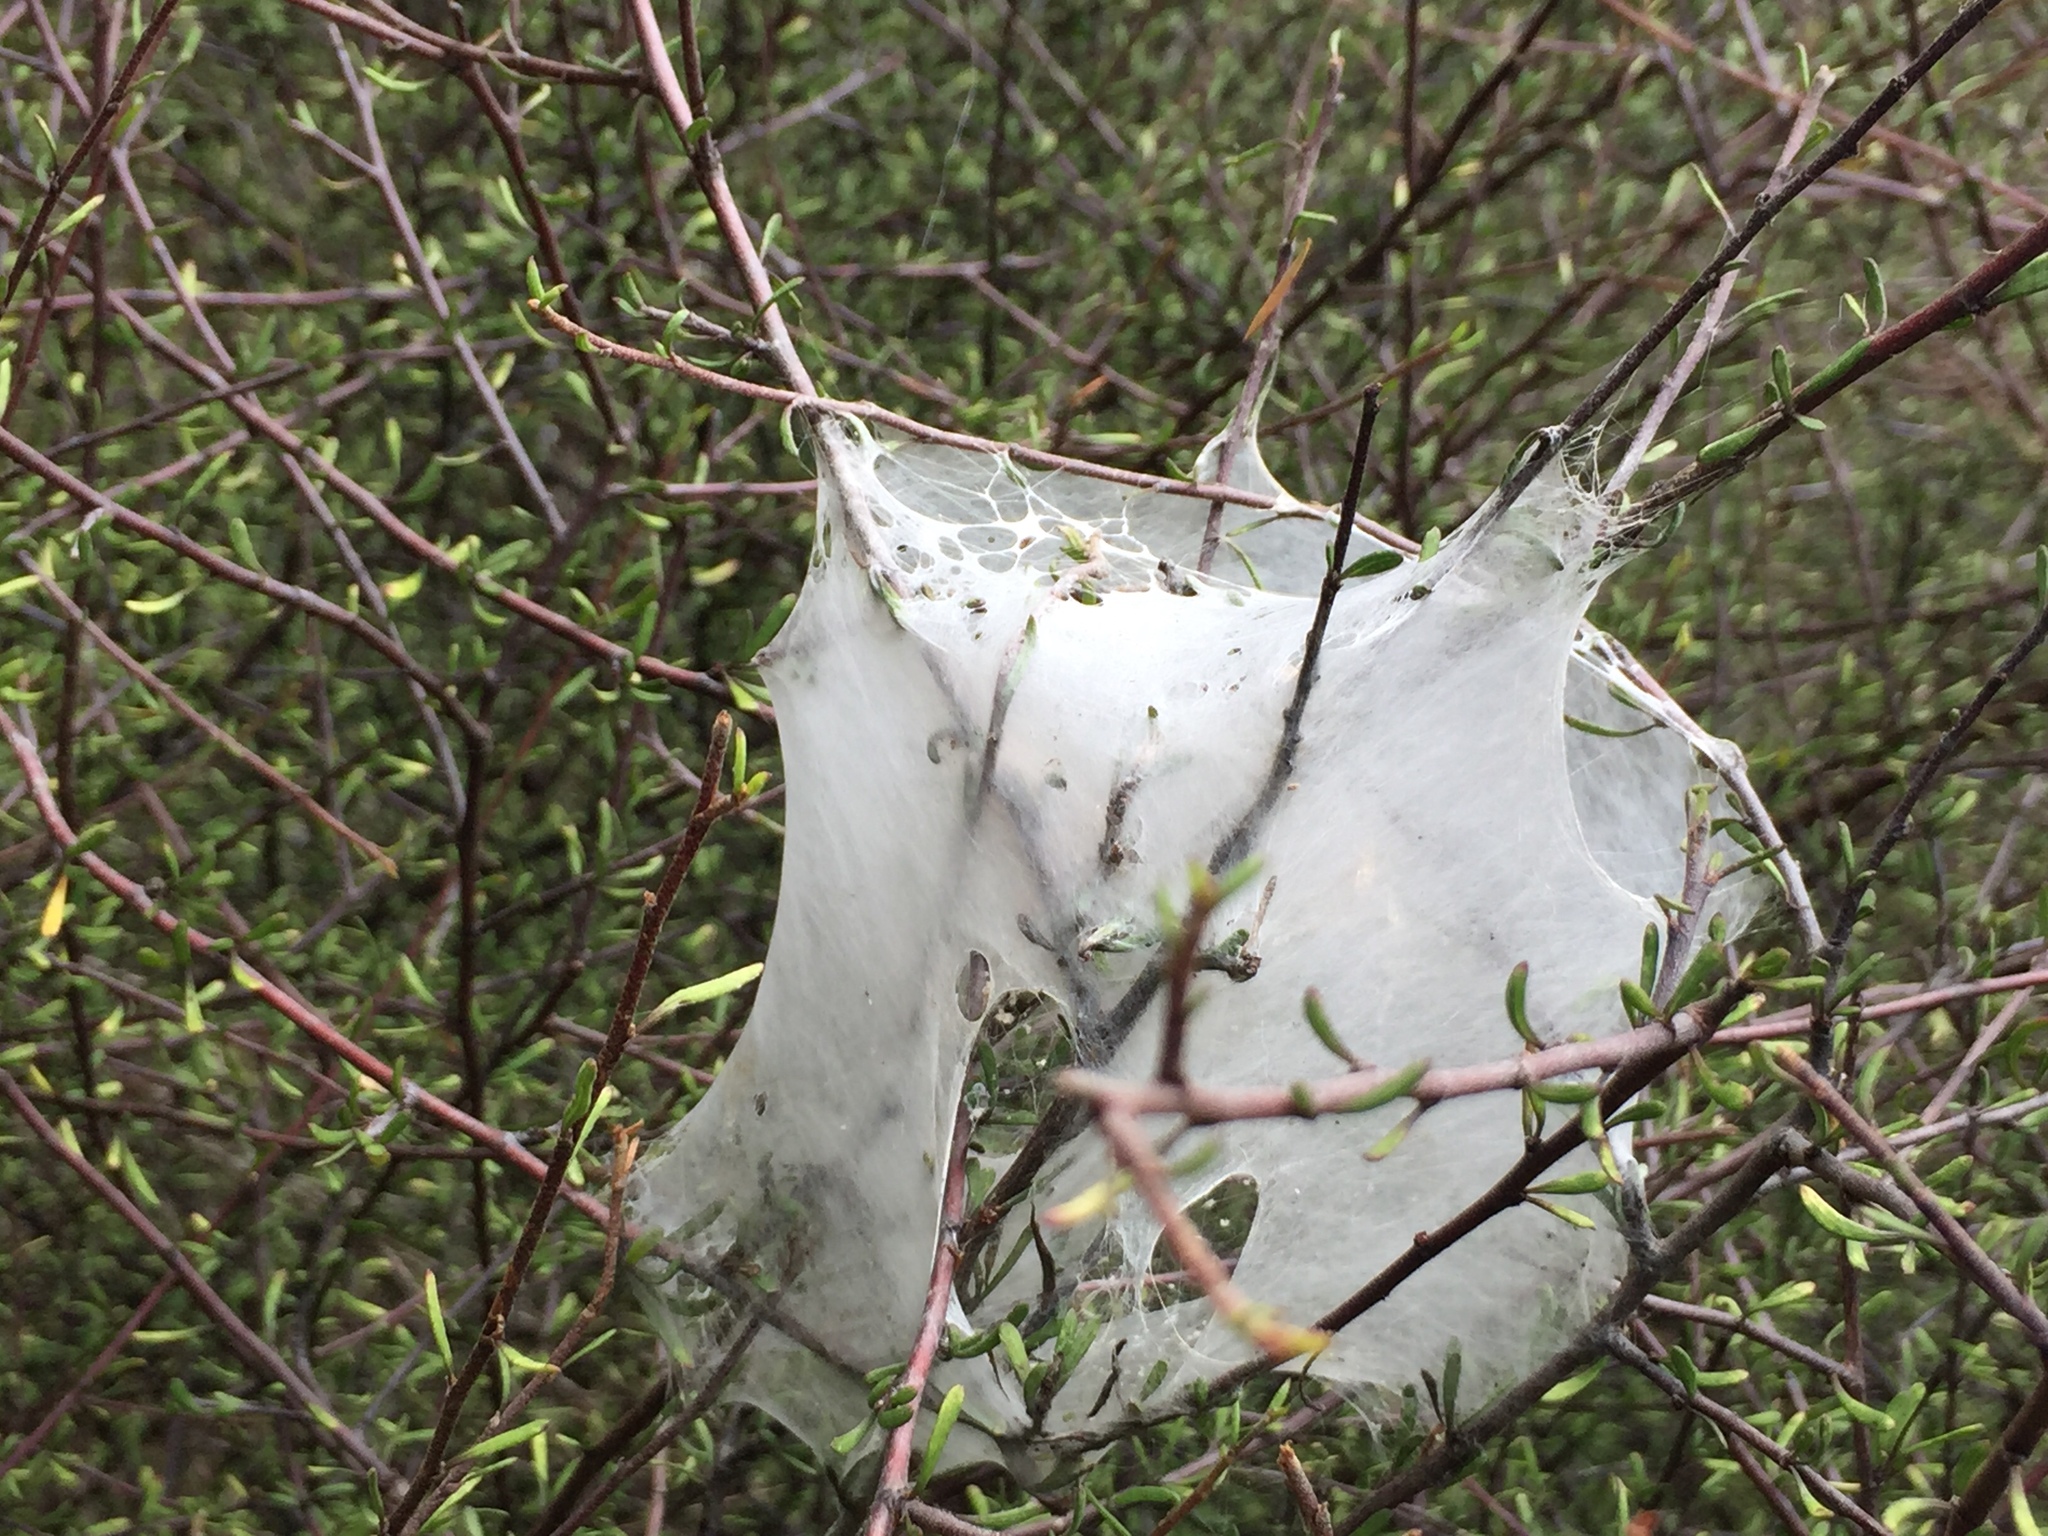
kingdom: Animalia
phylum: Arthropoda
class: Arachnida
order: Araneae
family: Pisauridae
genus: Dolomedes
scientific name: Dolomedes minor
